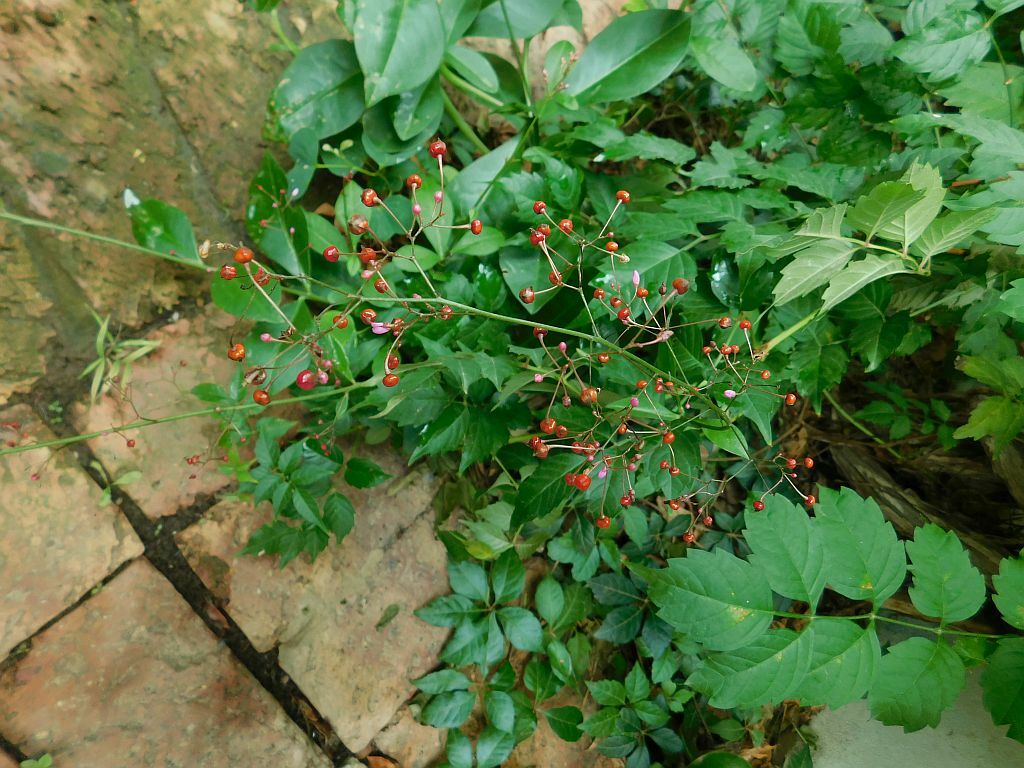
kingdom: Plantae
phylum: Tracheophyta
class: Magnoliopsida
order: Caryophyllales
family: Talinaceae
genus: Talinum
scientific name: Talinum paniculatum
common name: Jewels of opar
